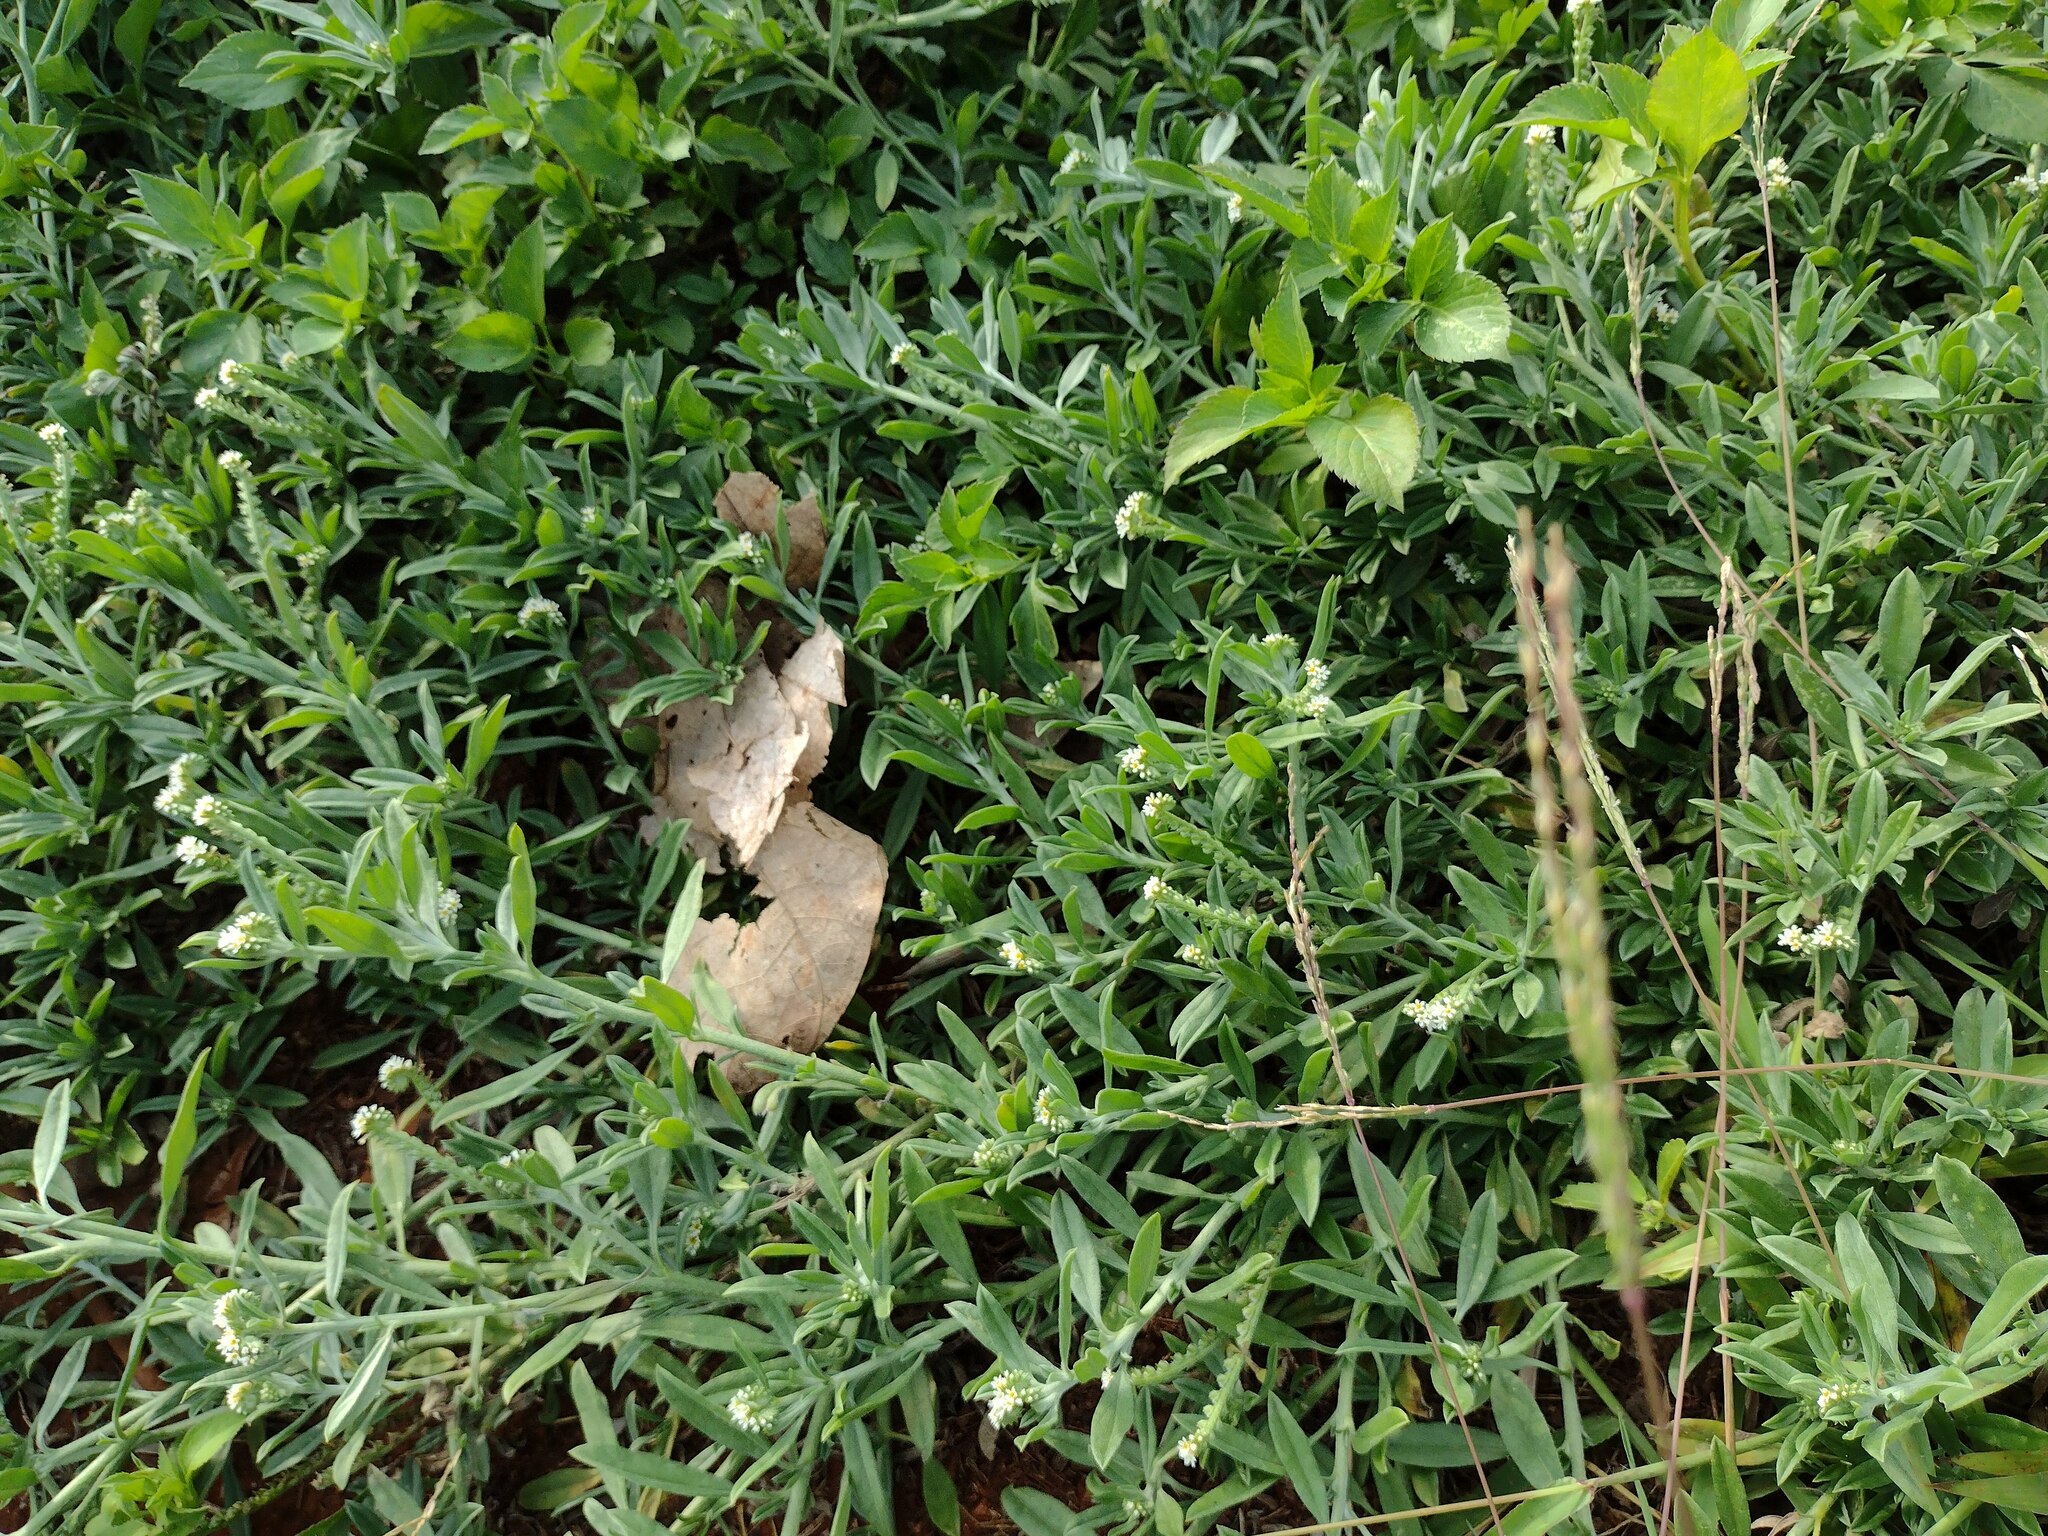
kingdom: Plantae
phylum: Tracheophyta
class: Magnoliopsida
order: Boraginales
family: Heliotropiaceae
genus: Euploca
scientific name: Euploca procumbens
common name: Fourspike heliotrope
